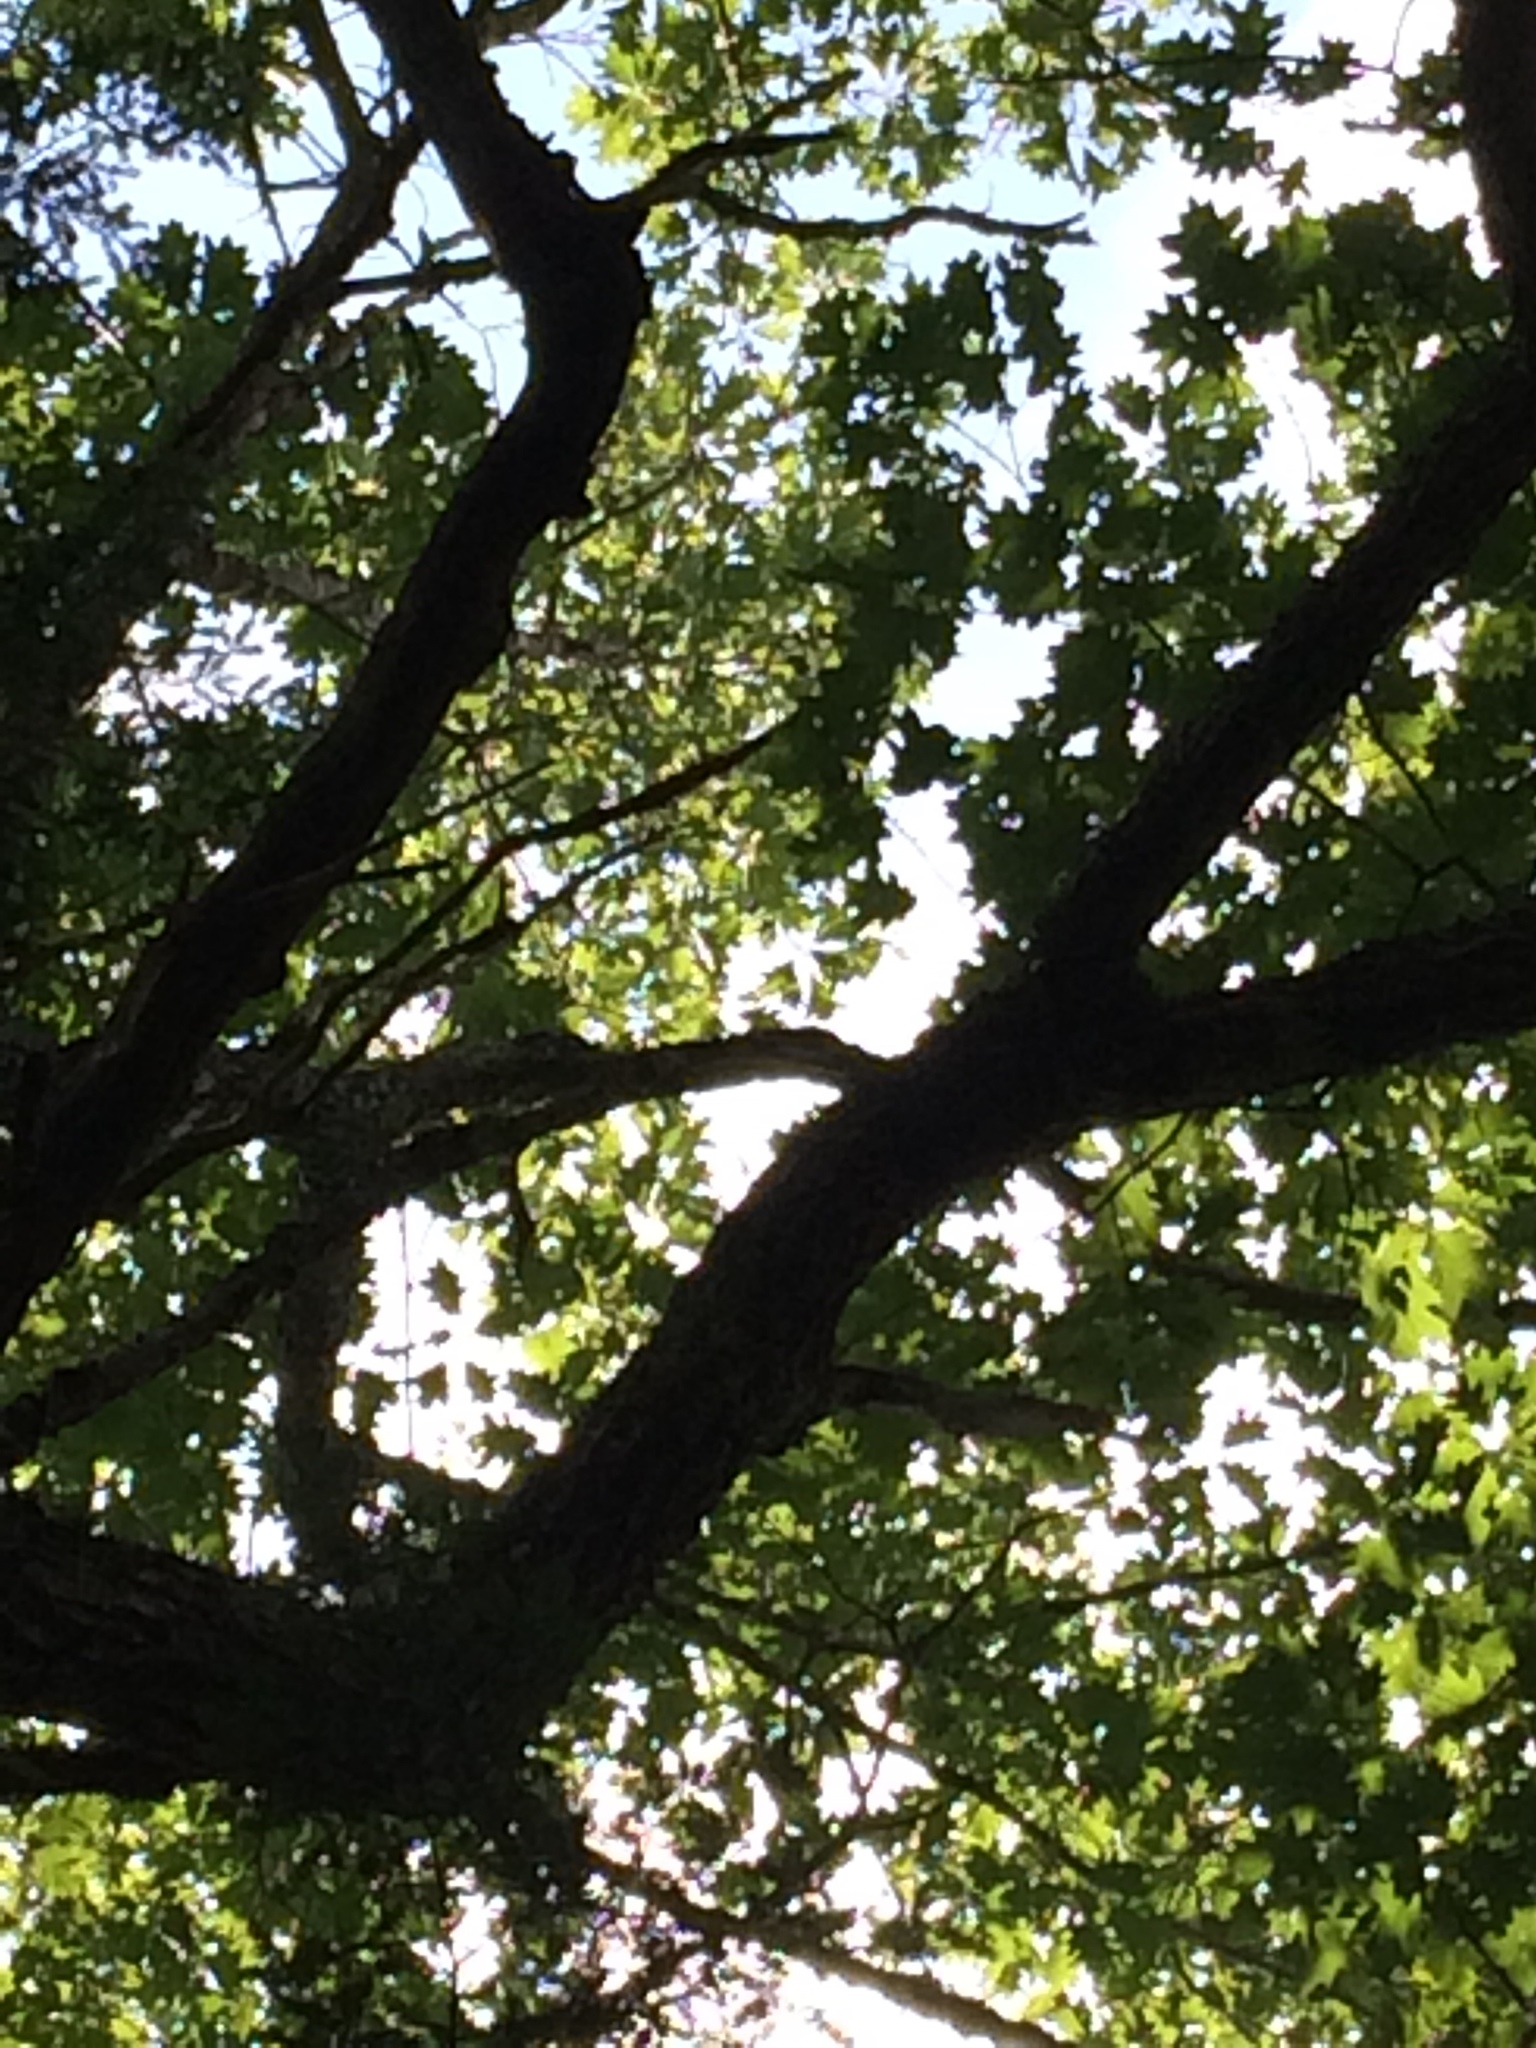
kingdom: Plantae
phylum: Tracheophyta
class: Magnoliopsida
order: Fagales
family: Fagaceae
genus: Quercus
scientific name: Quercus rubra
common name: Red oak
